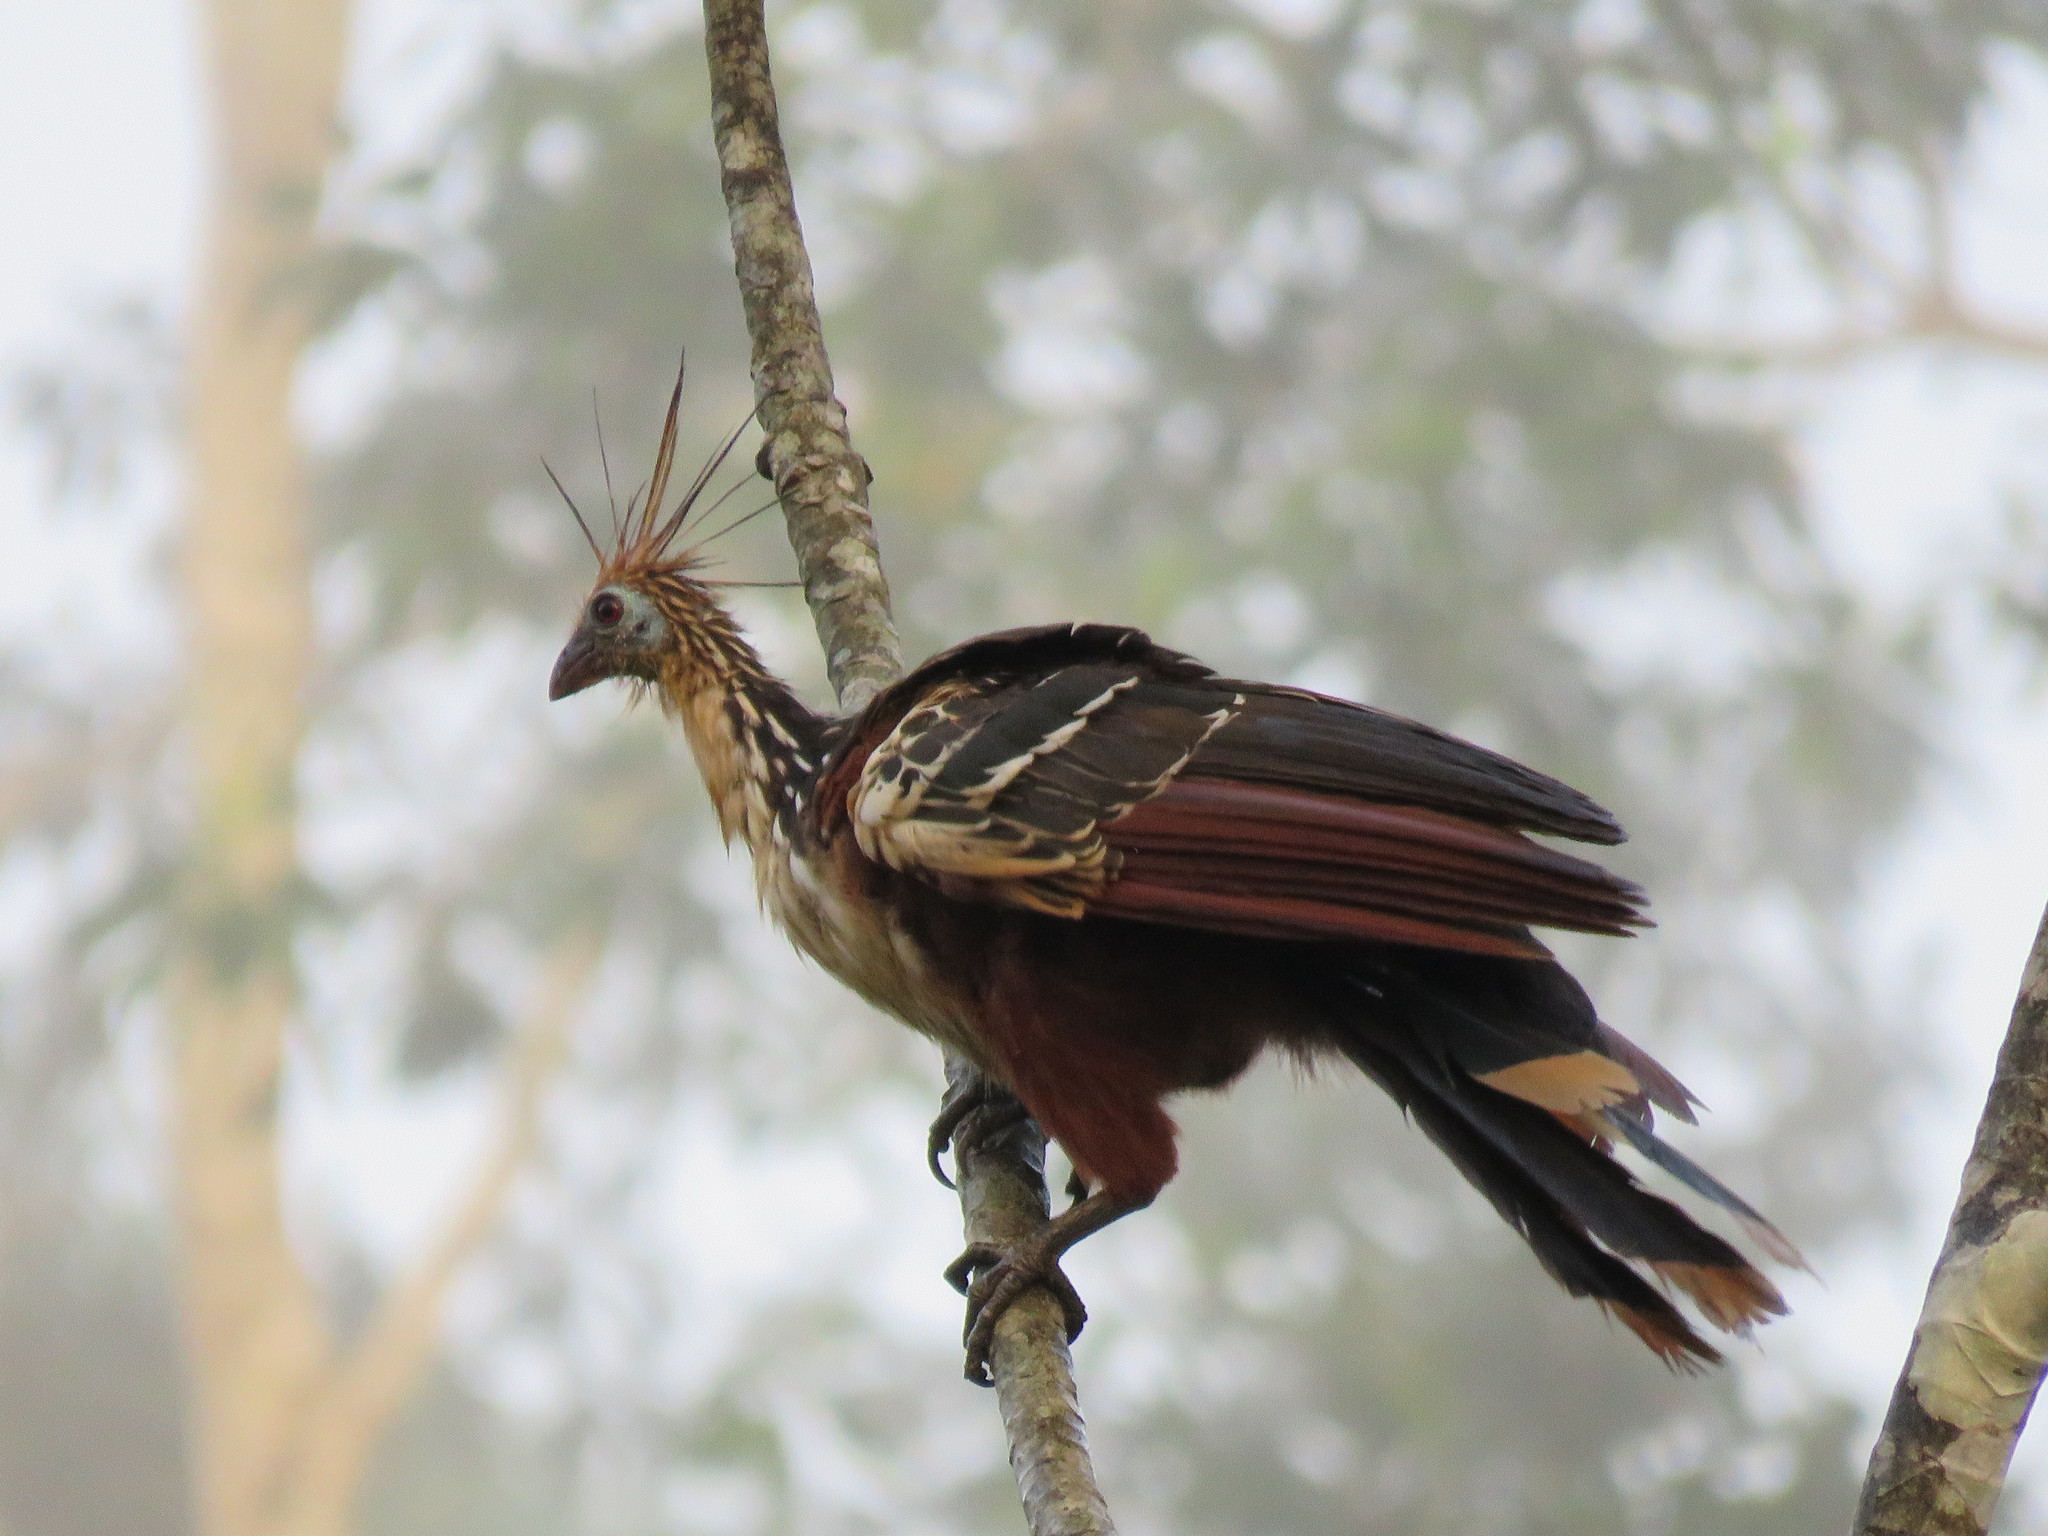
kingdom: Animalia
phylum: Chordata
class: Aves
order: Opisthocomiformes
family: Opisthocomidae
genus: Opisthocomus
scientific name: Opisthocomus hoazin
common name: Hoatzin
